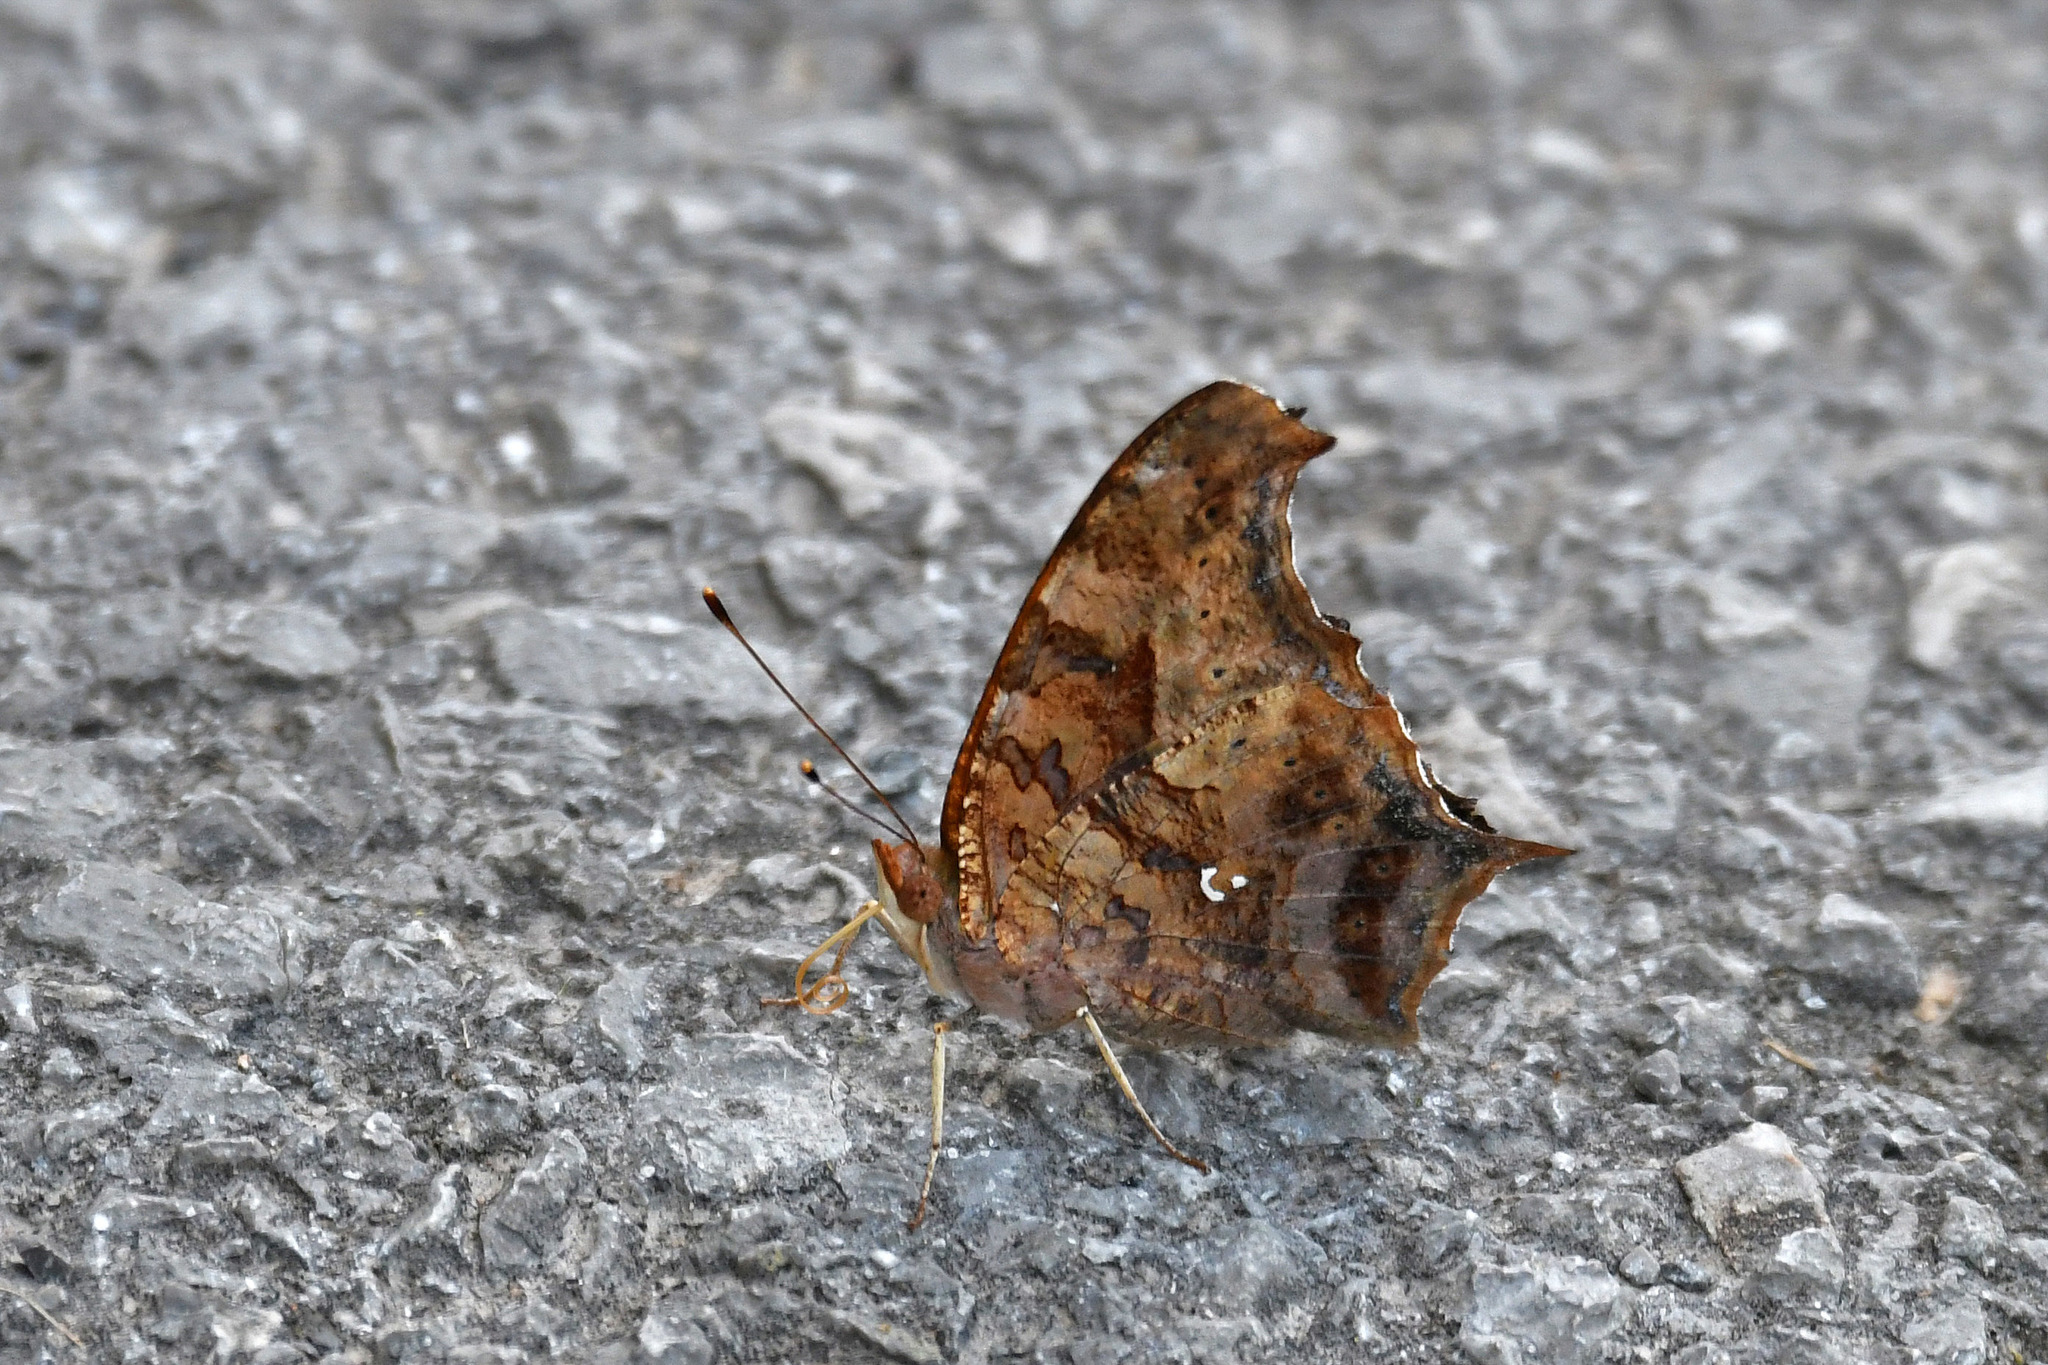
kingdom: Animalia
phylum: Arthropoda
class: Insecta
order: Lepidoptera
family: Nymphalidae
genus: Polygonia
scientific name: Polygonia interrogationis
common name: Question mark
